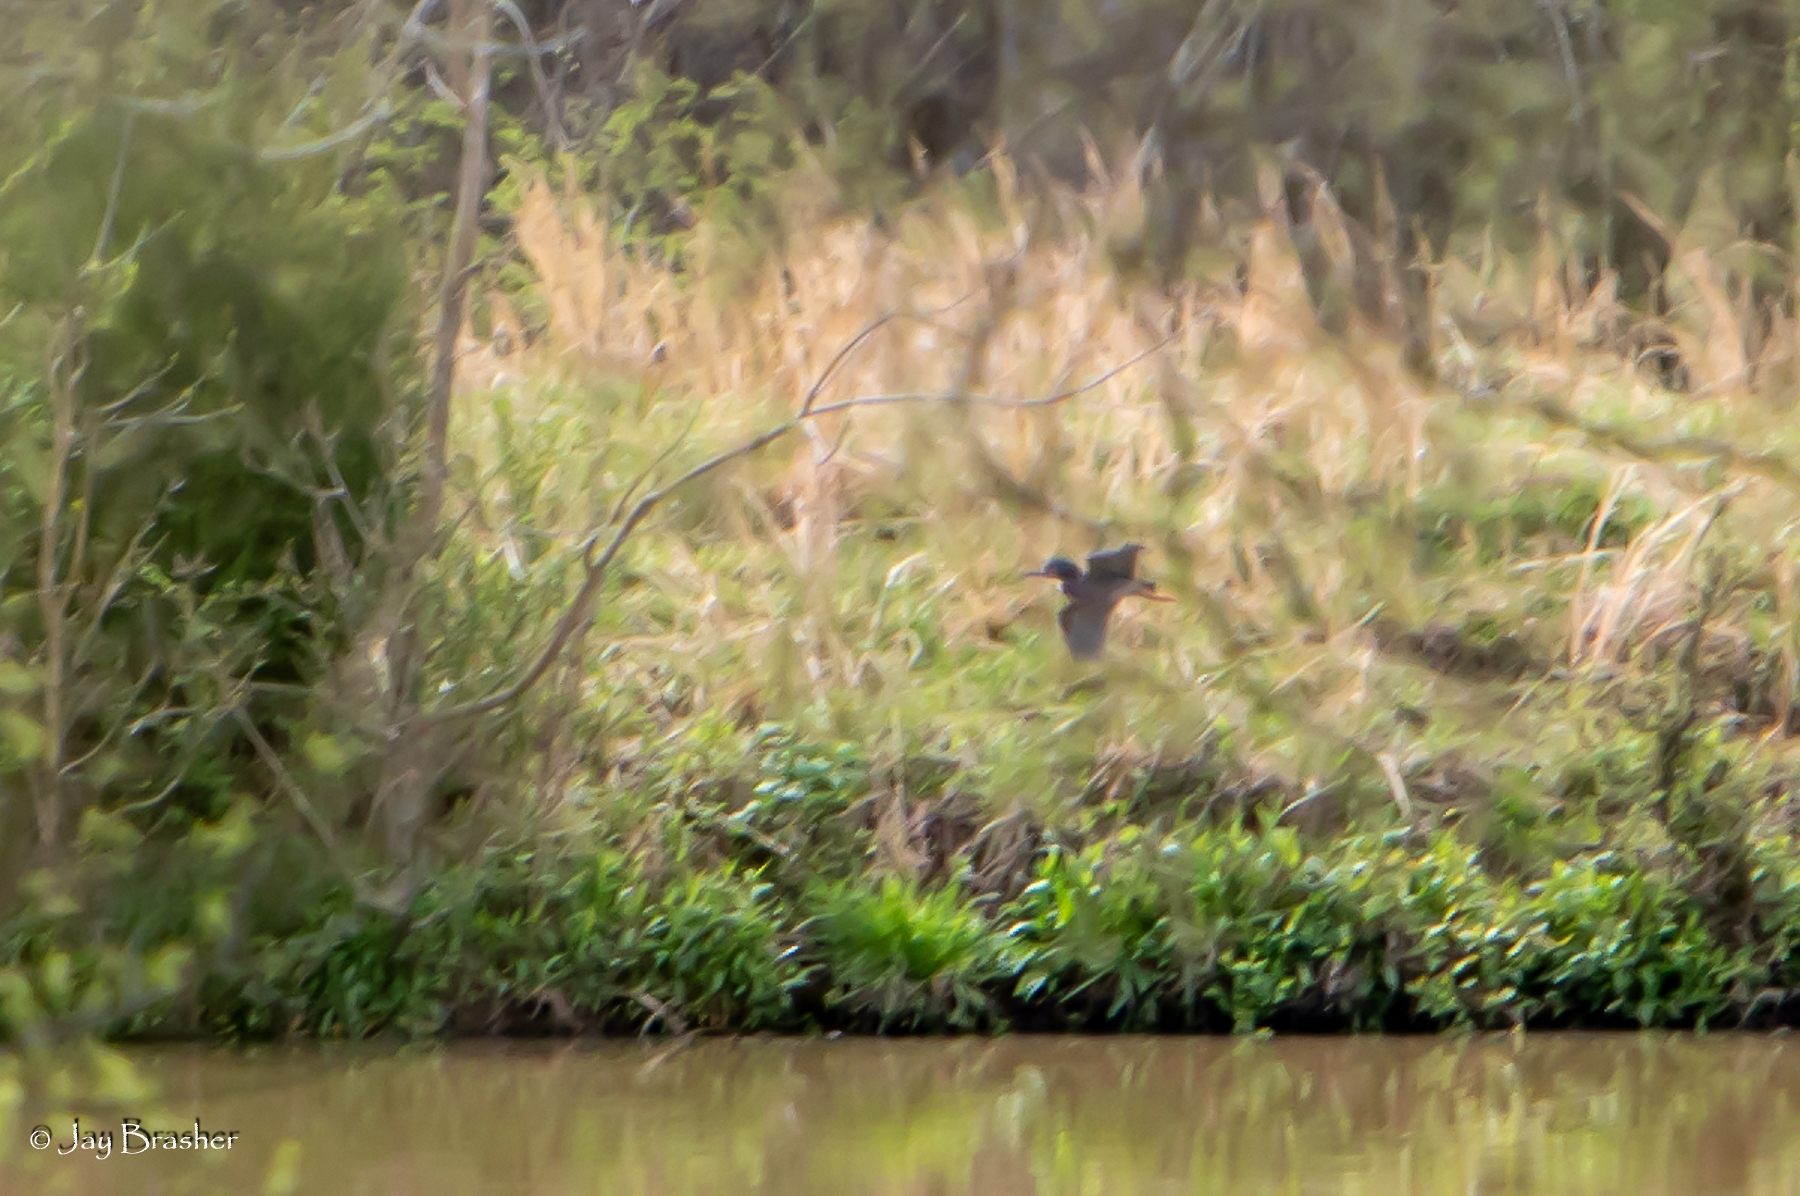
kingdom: Animalia
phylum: Chordata
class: Aves
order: Pelecaniformes
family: Ardeidae
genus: Butorides
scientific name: Butorides virescens
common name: Green heron
